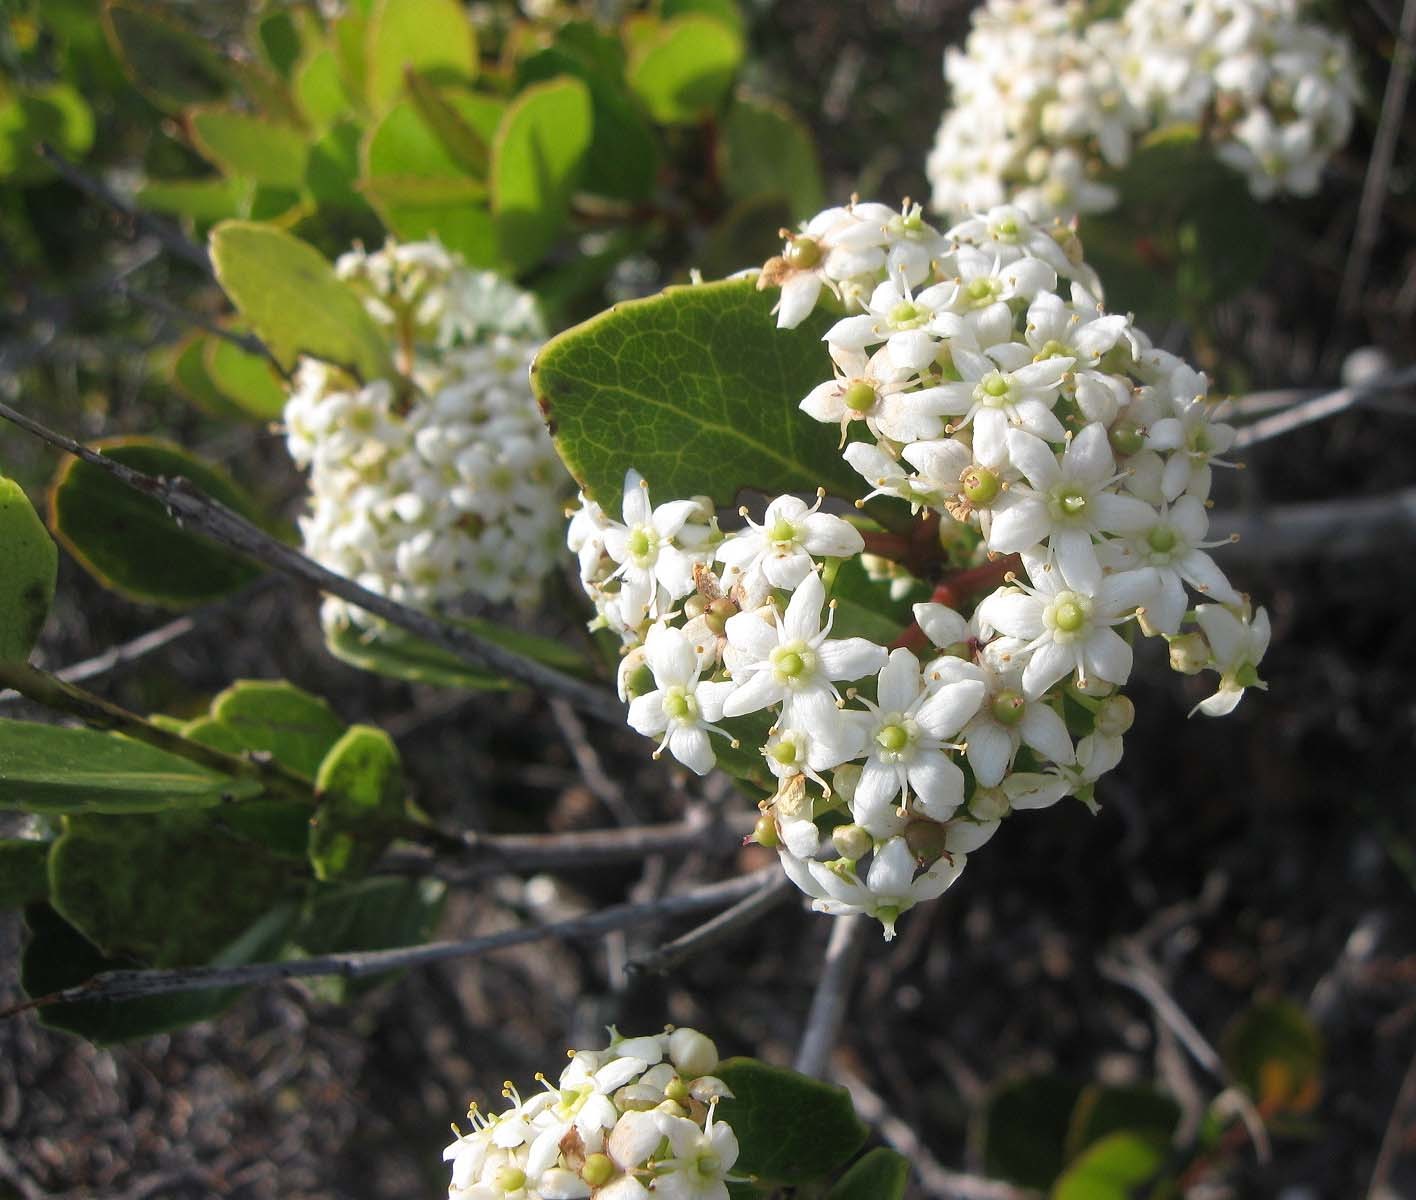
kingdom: Plantae
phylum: Tracheophyta
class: Magnoliopsida
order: Celastrales
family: Celastraceae
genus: Cassine
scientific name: Cassine peragua
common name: Cape saffron
